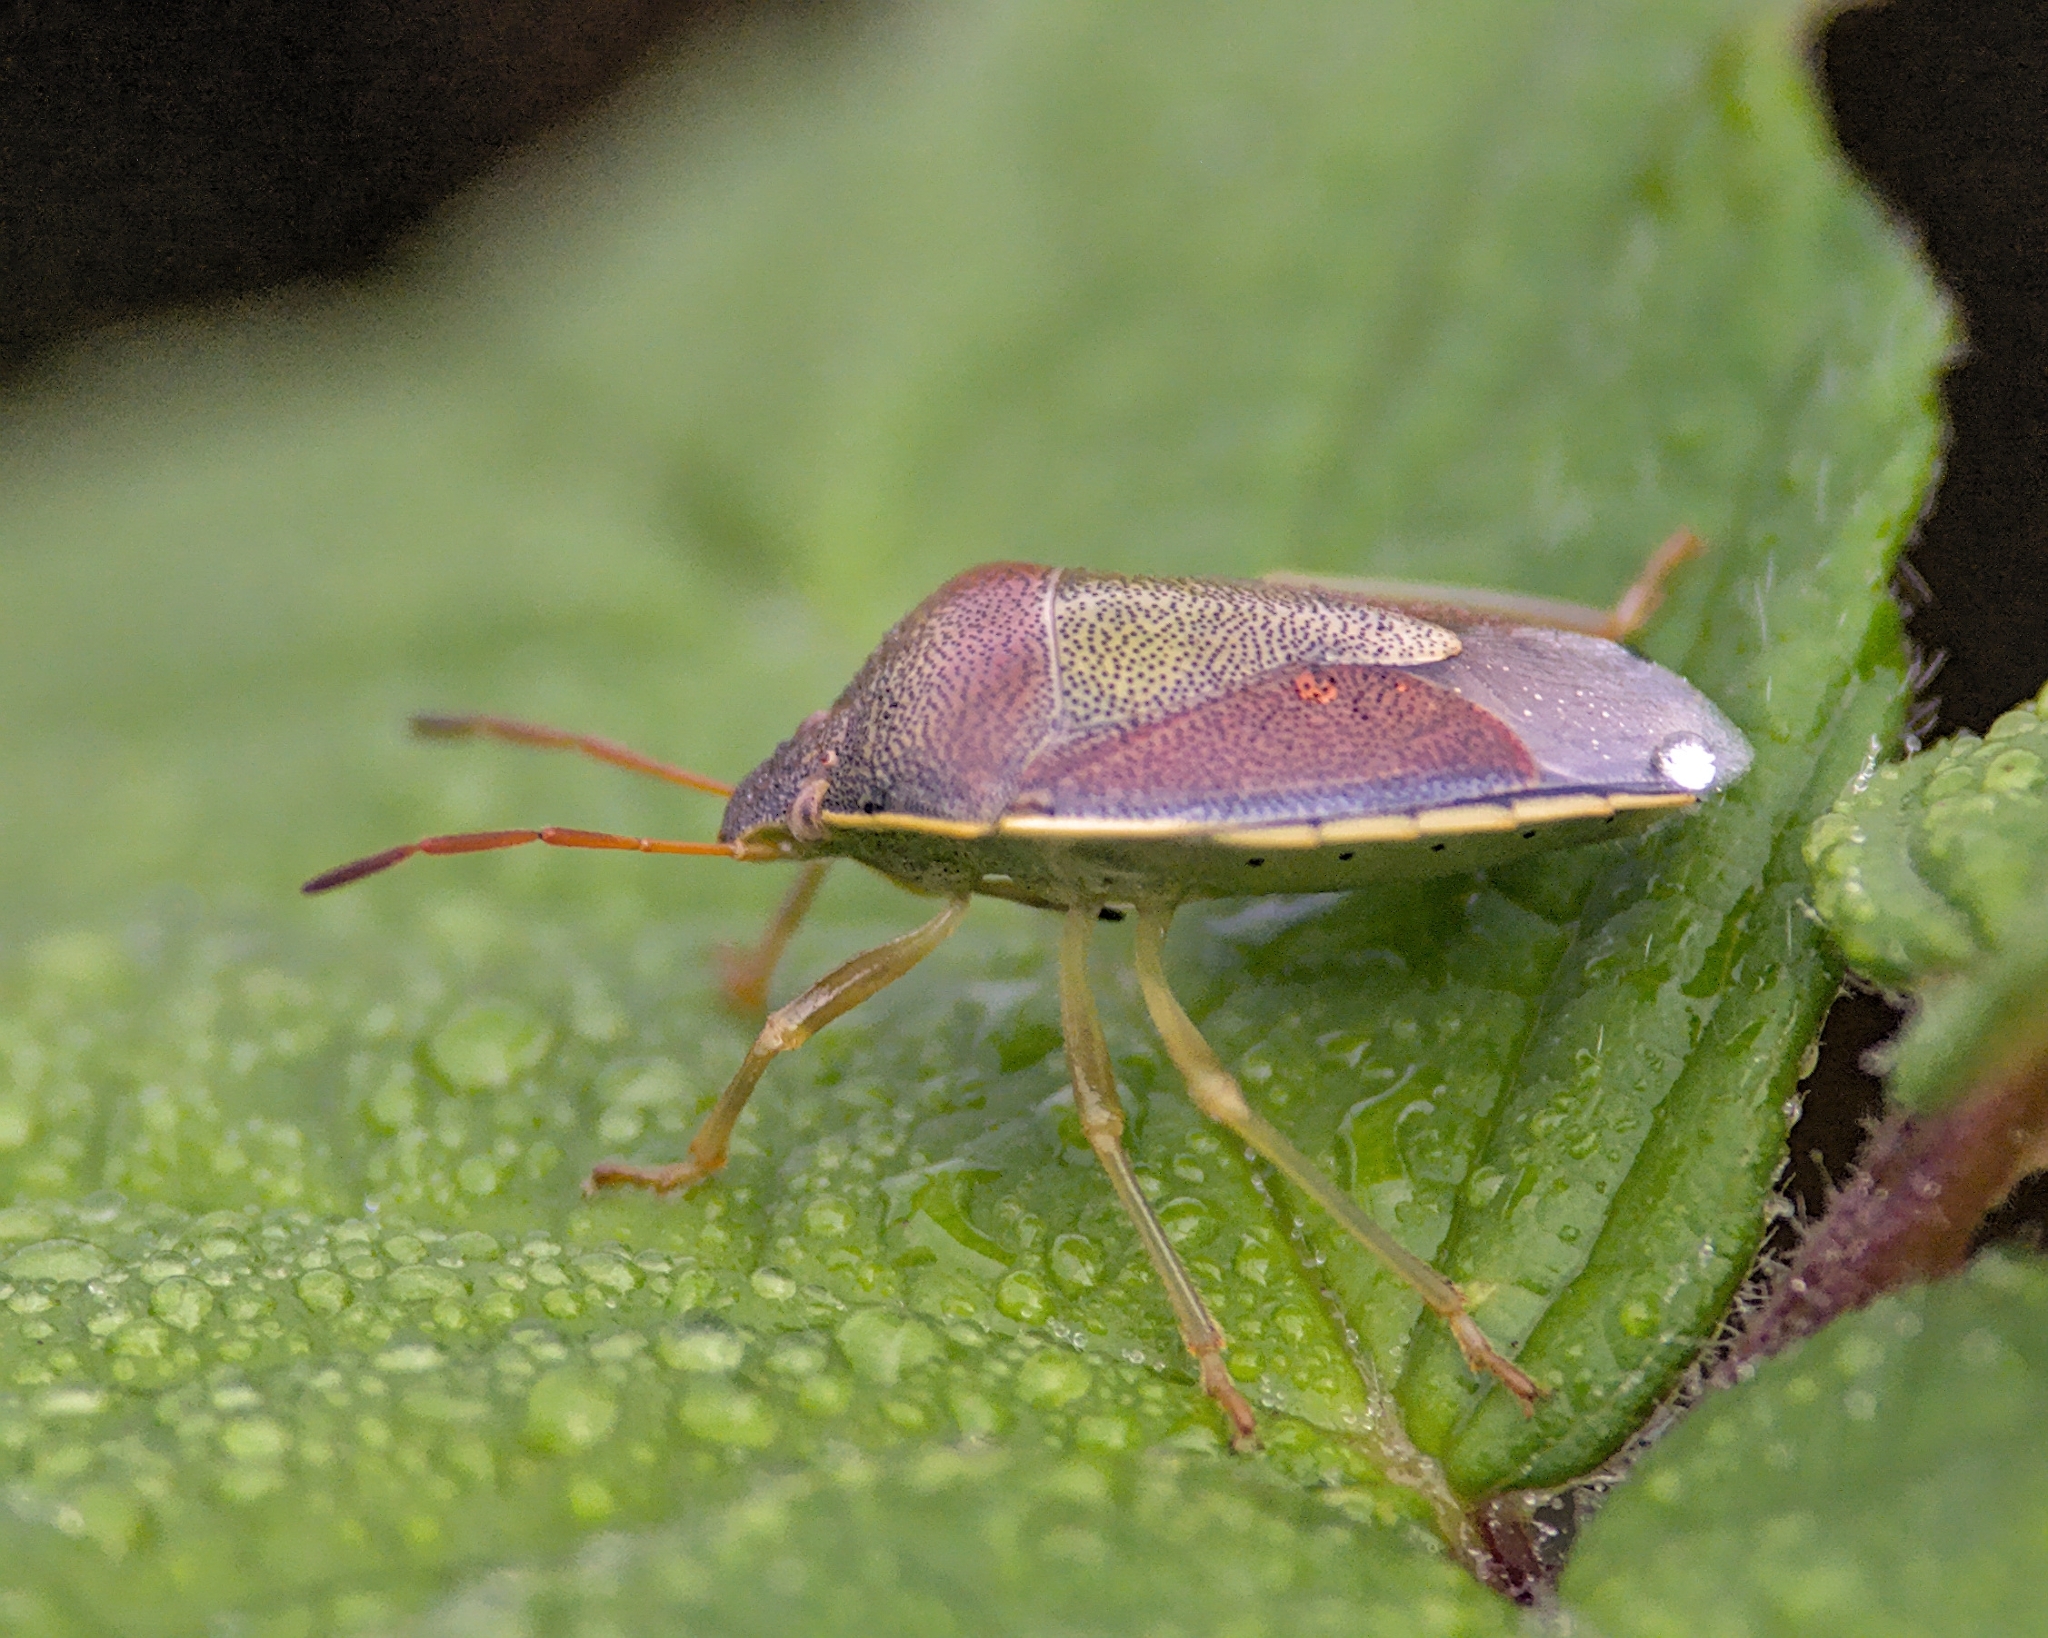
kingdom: Animalia
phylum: Arthropoda
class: Insecta
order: Hemiptera
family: Pentatomidae
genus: Piezodorus
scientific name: Piezodorus lituratus
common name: Stink bug
